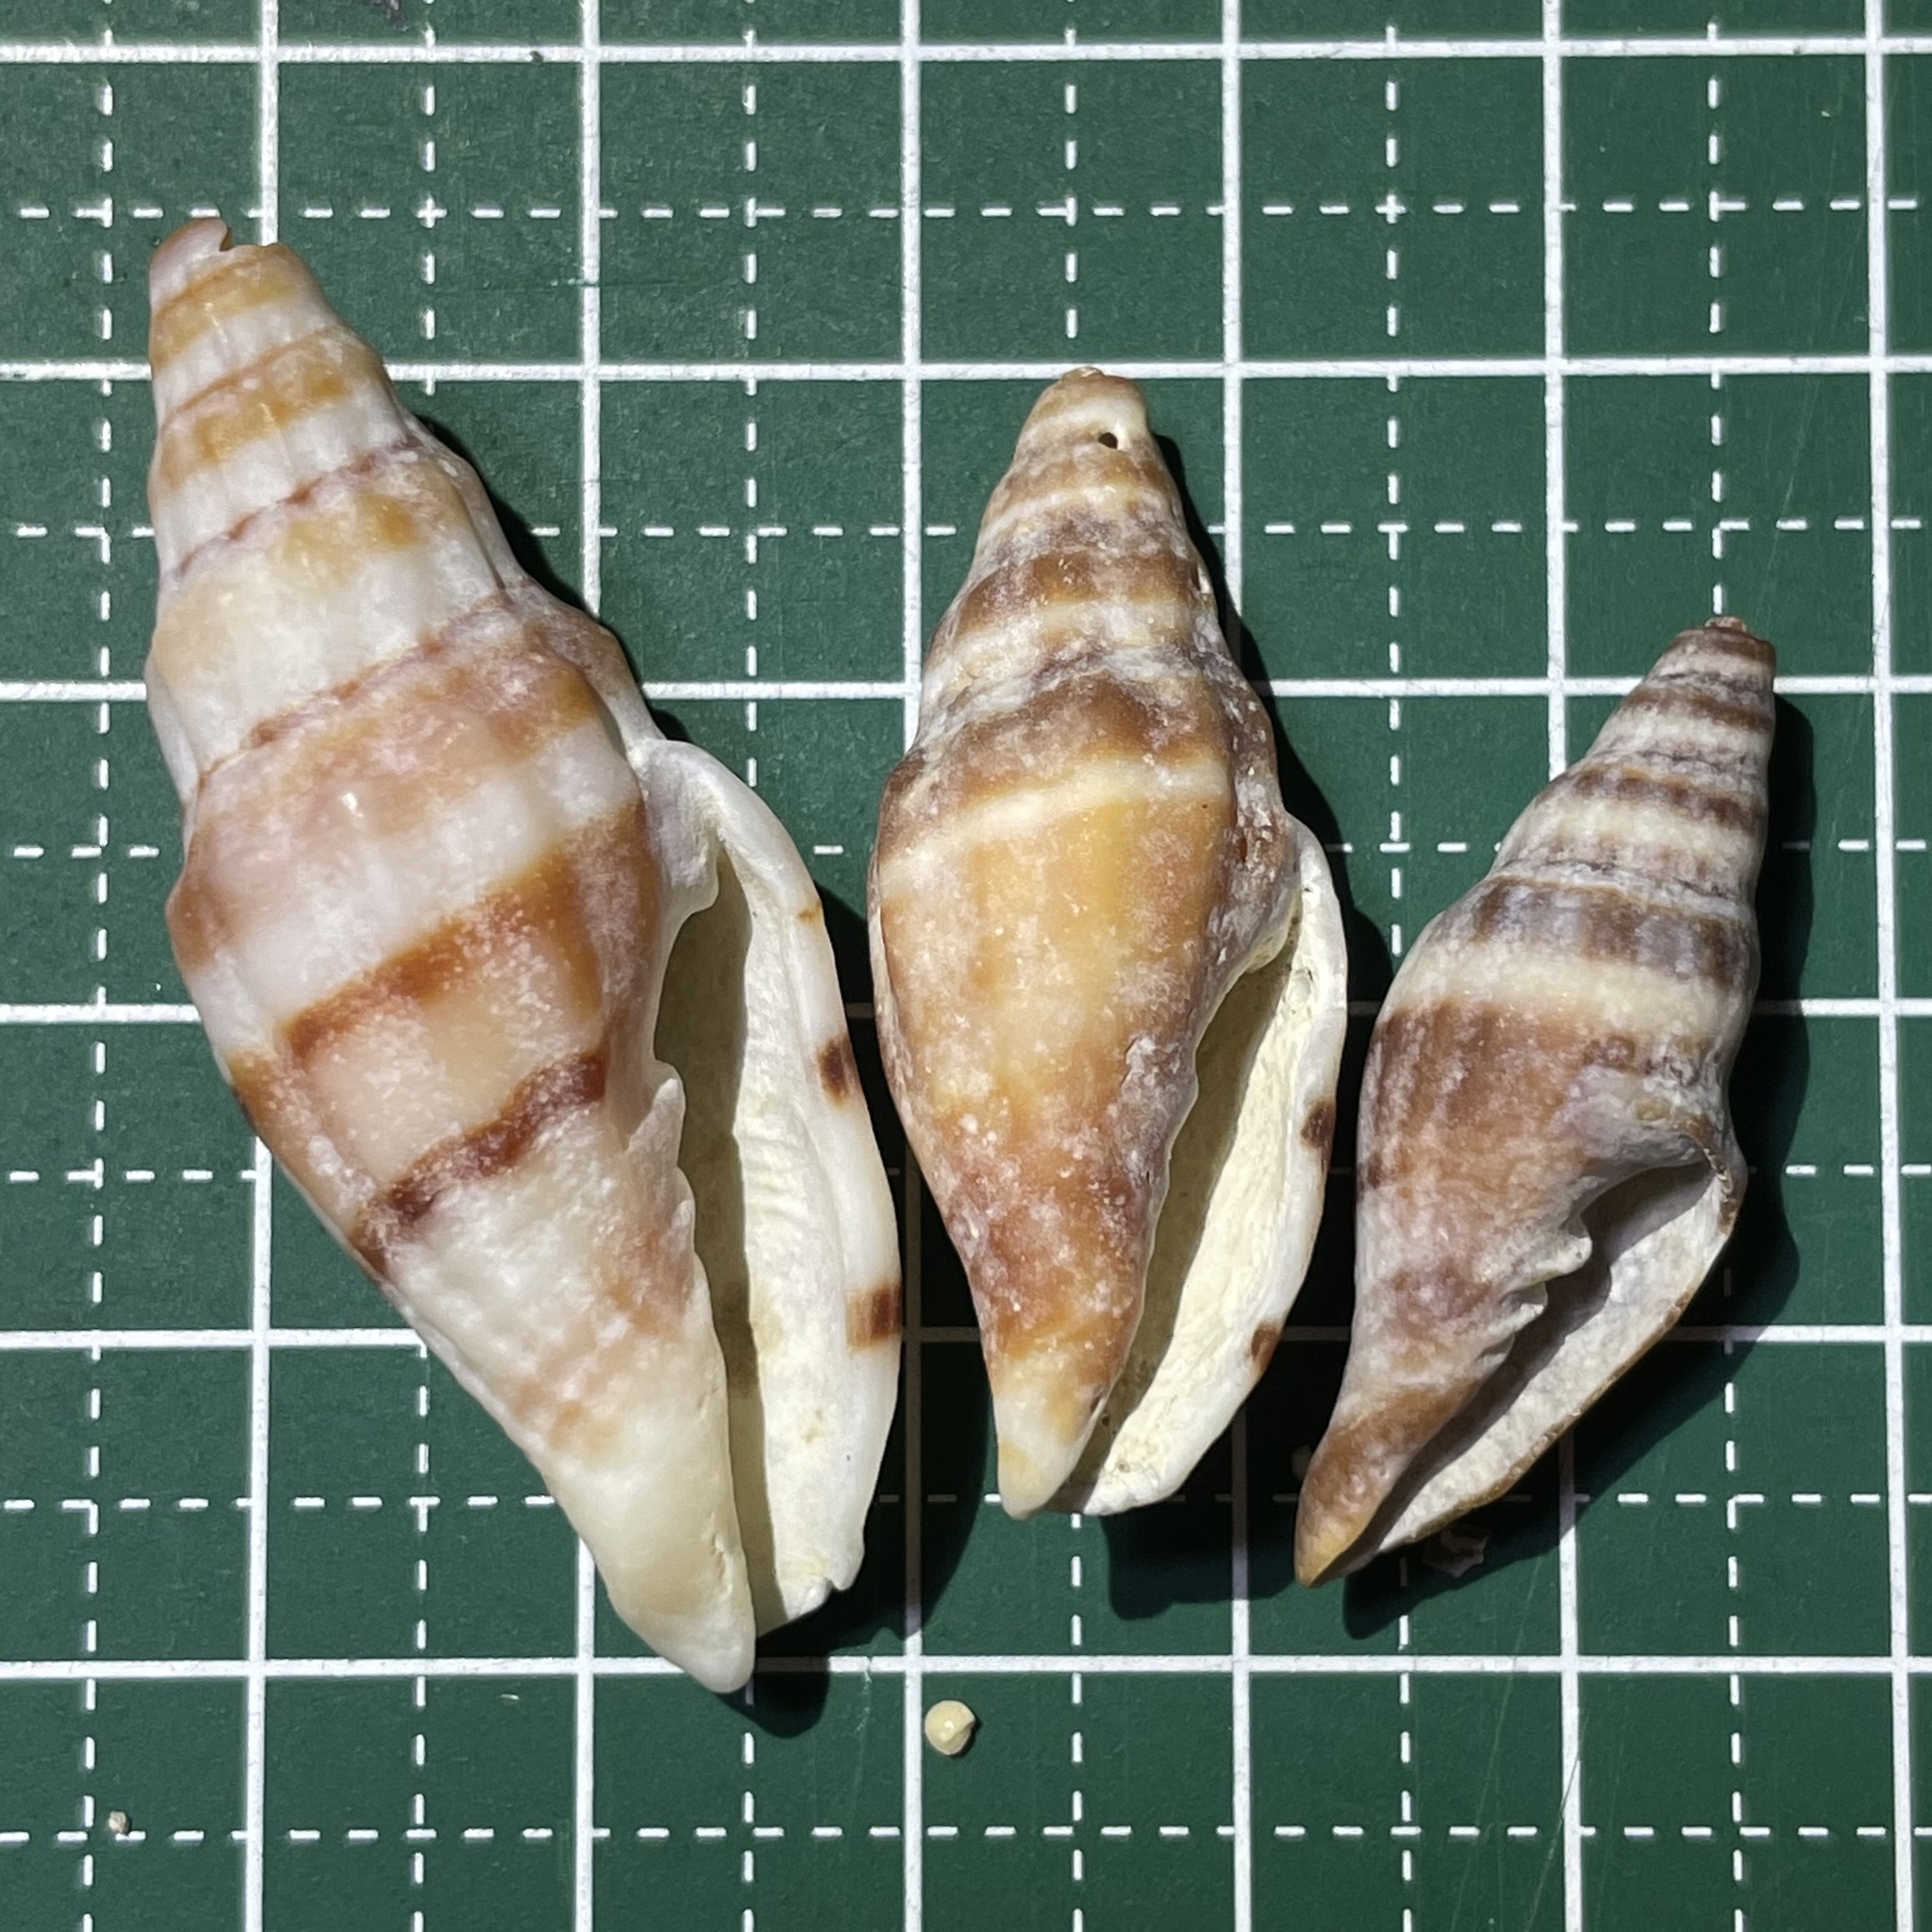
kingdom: Animalia
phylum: Mollusca
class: Gastropoda
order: Neogastropoda
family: Costellariidae
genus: Vexillum
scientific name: Vexillum balteolatum
